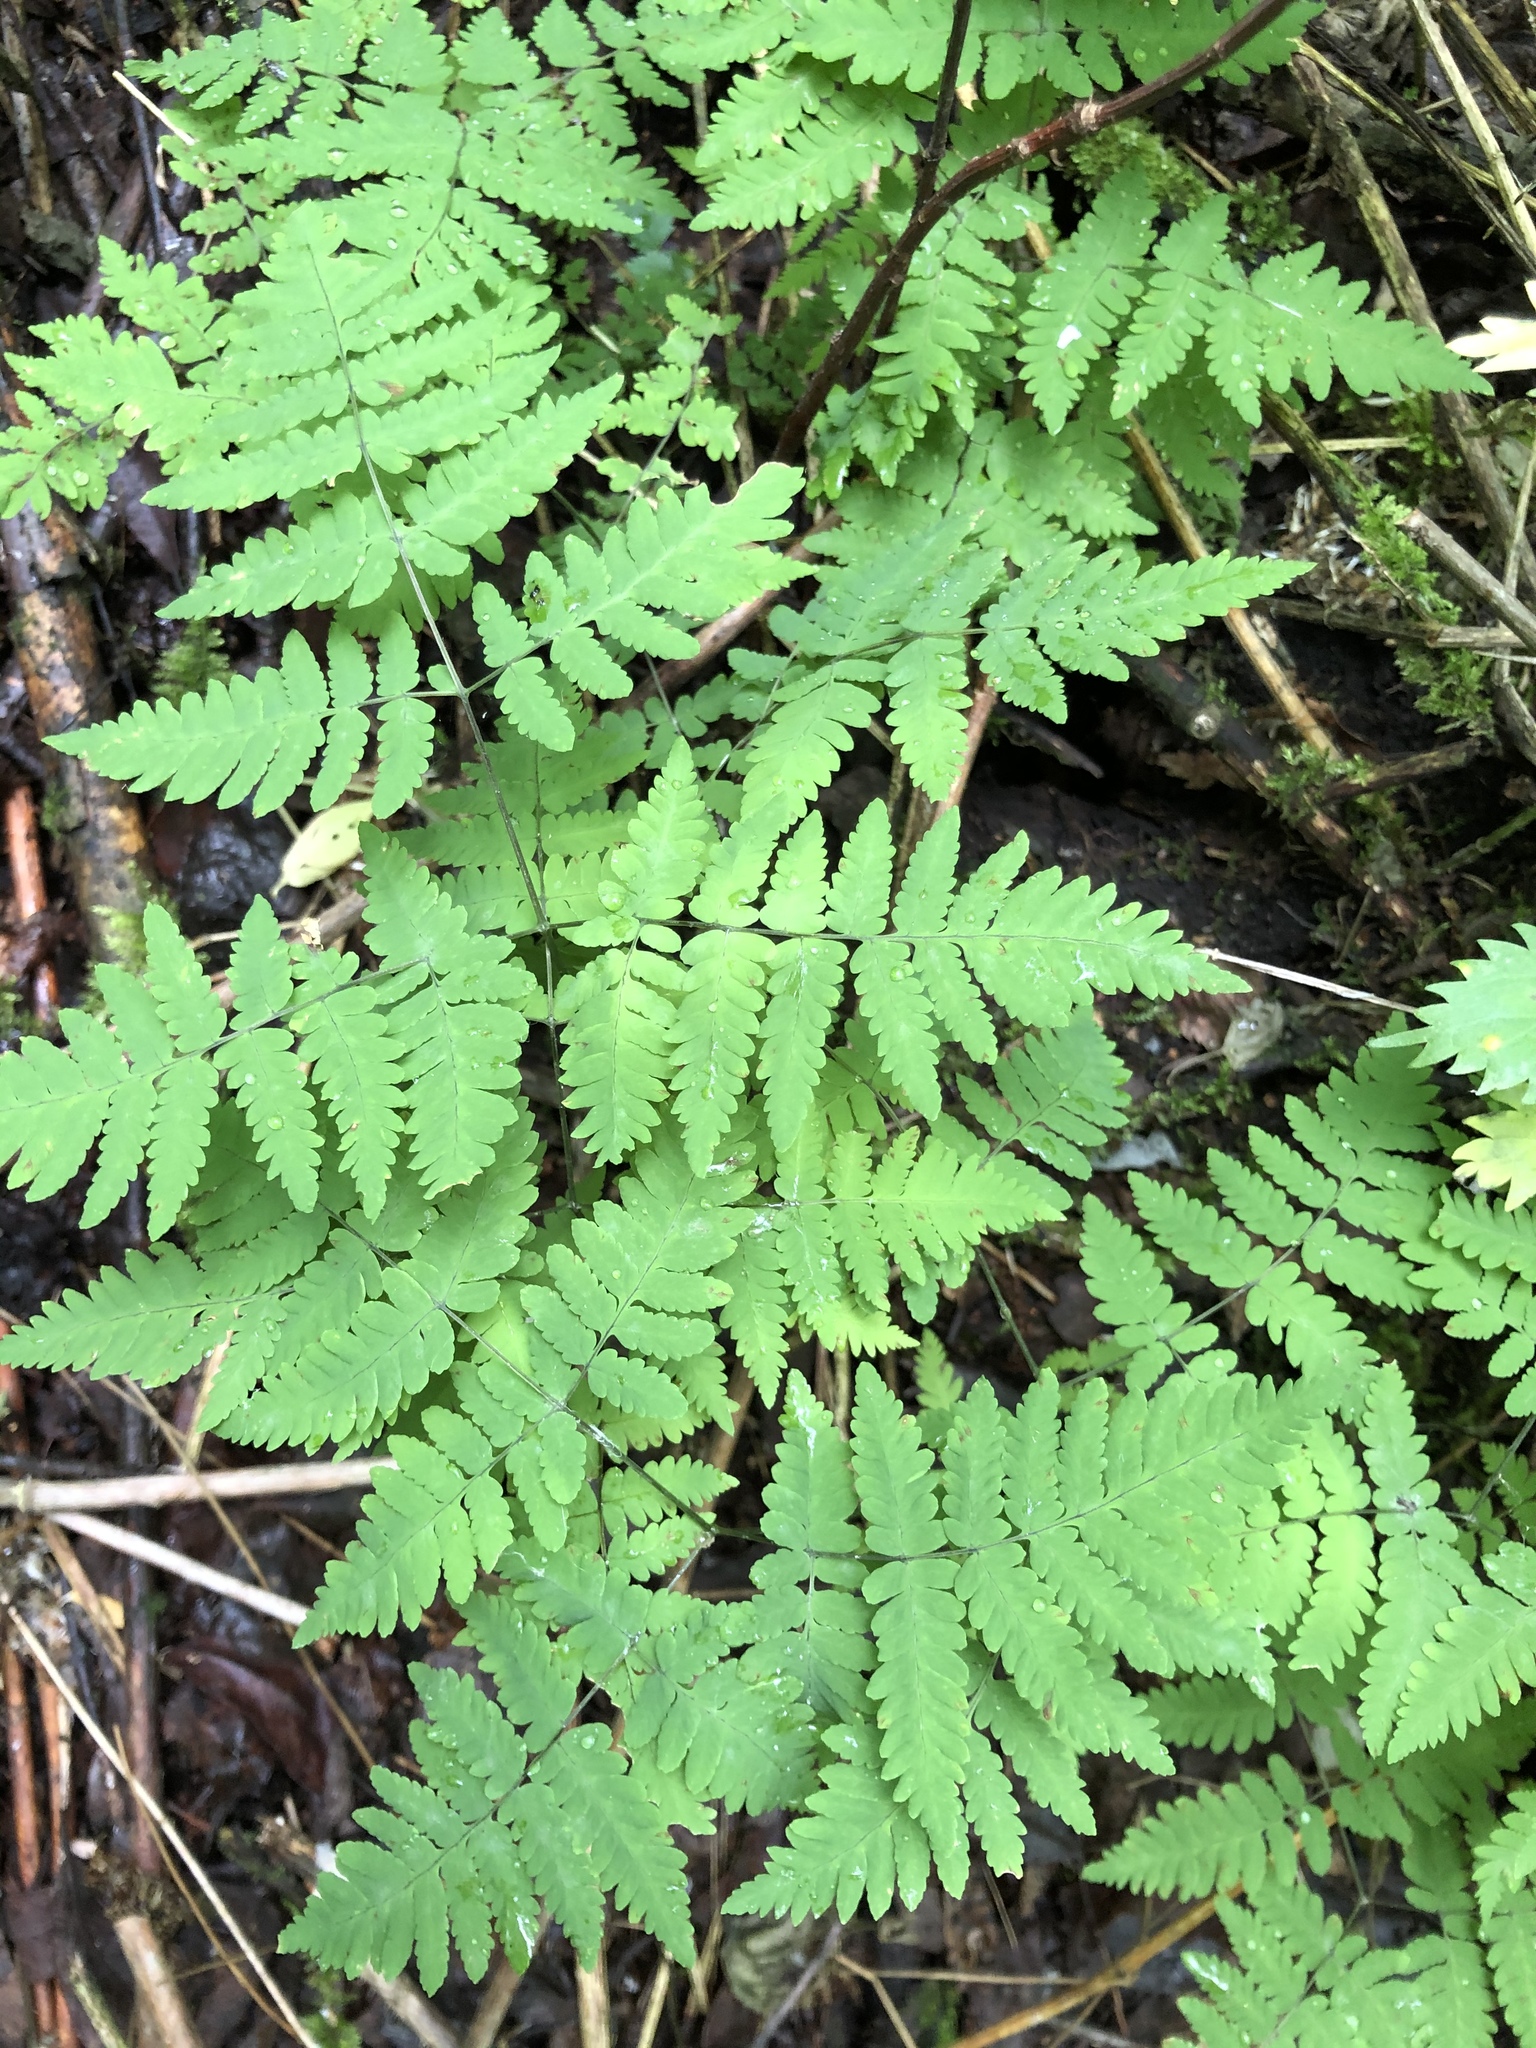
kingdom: Plantae
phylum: Tracheophyta
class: Polypodiopsida
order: Polypodiales
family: Cystopteridaceae
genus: Gymnocarpium
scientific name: Gymnocarpium dryopteris
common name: Oak fern
